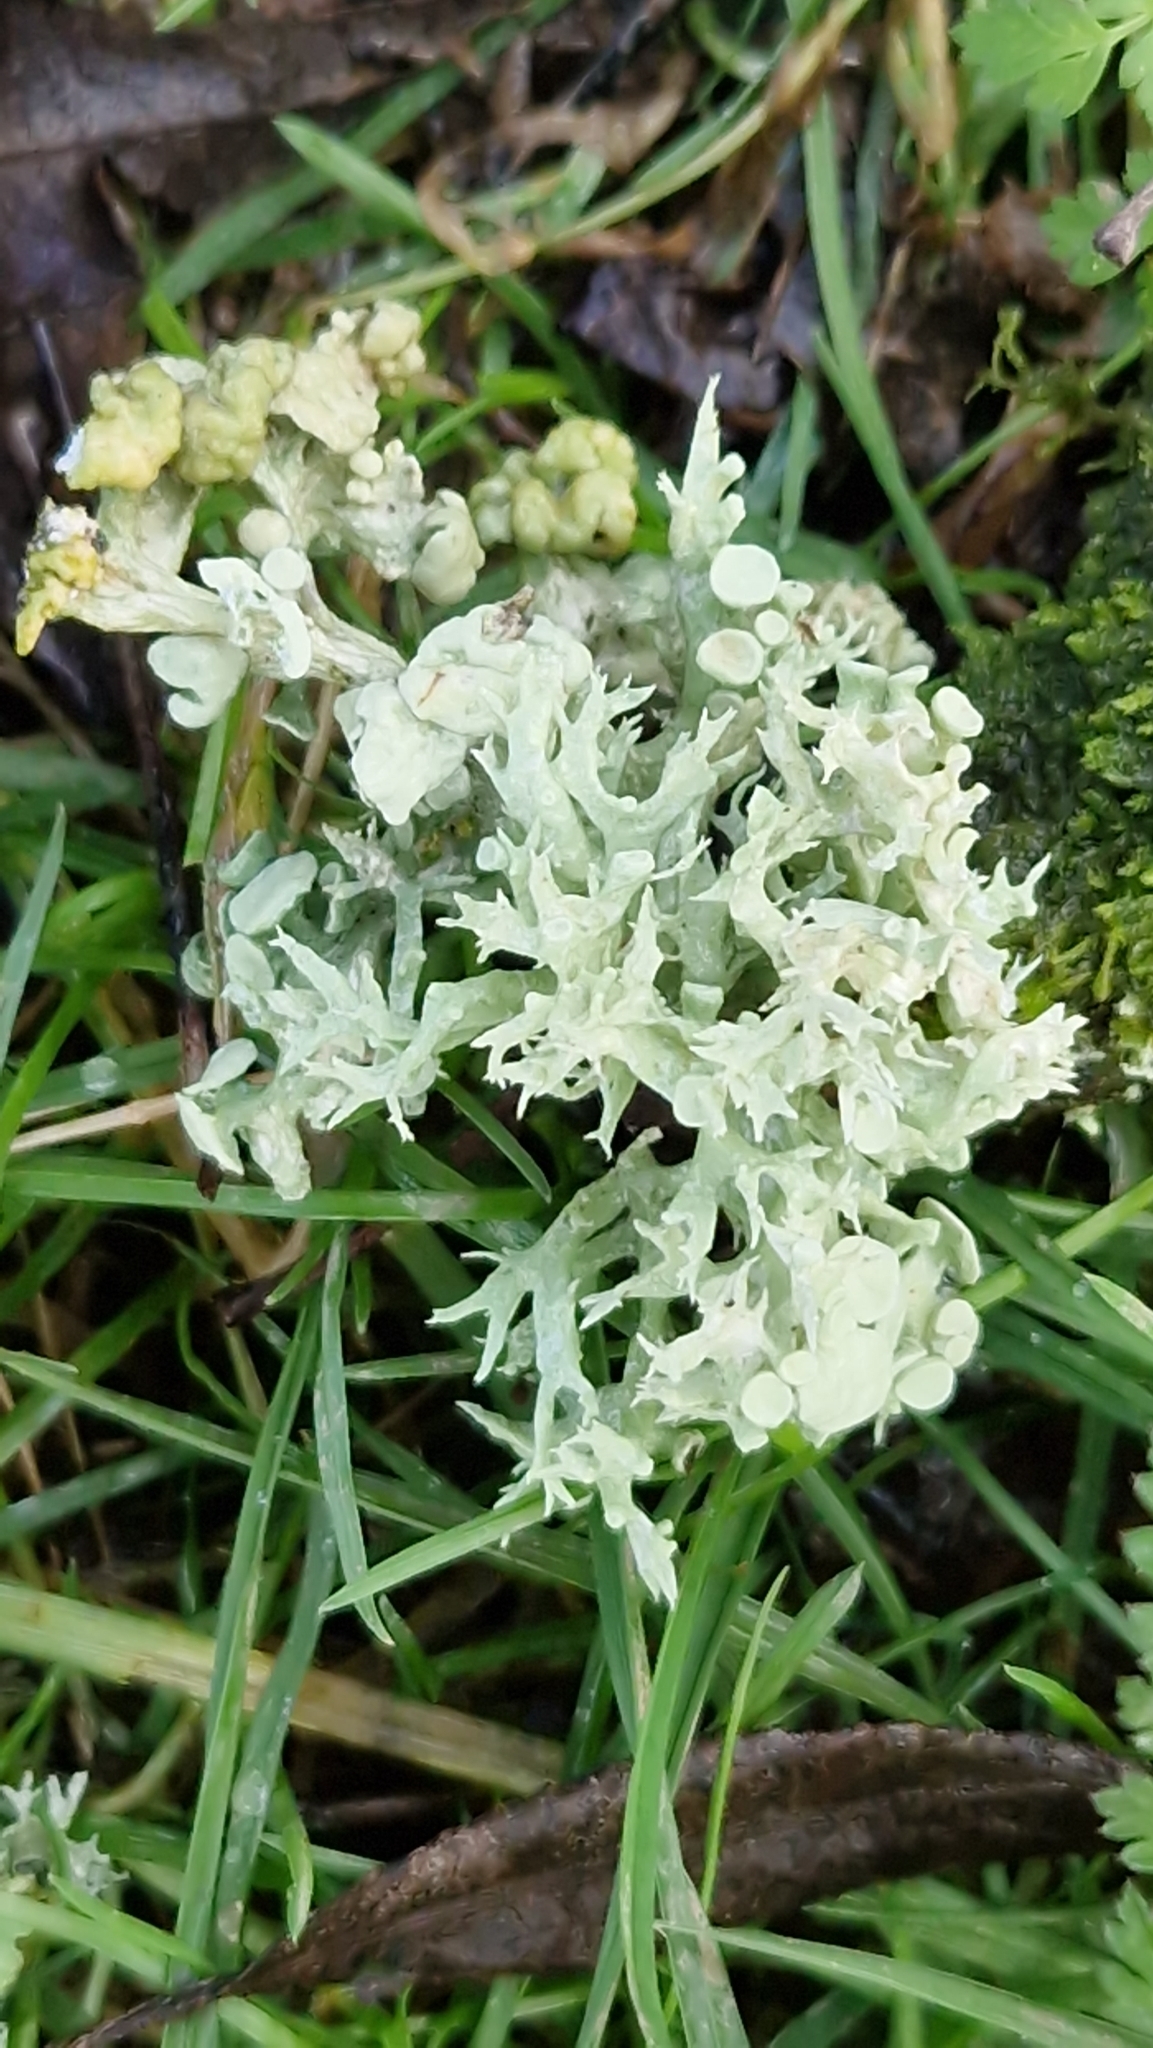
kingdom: Fungi
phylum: Ascomycota
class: Lecanoromycetes
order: Lecanorales
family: Ramalinaceae
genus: Ramalina
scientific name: Ramalina fastigiata
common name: Dotted ribbon lichen
